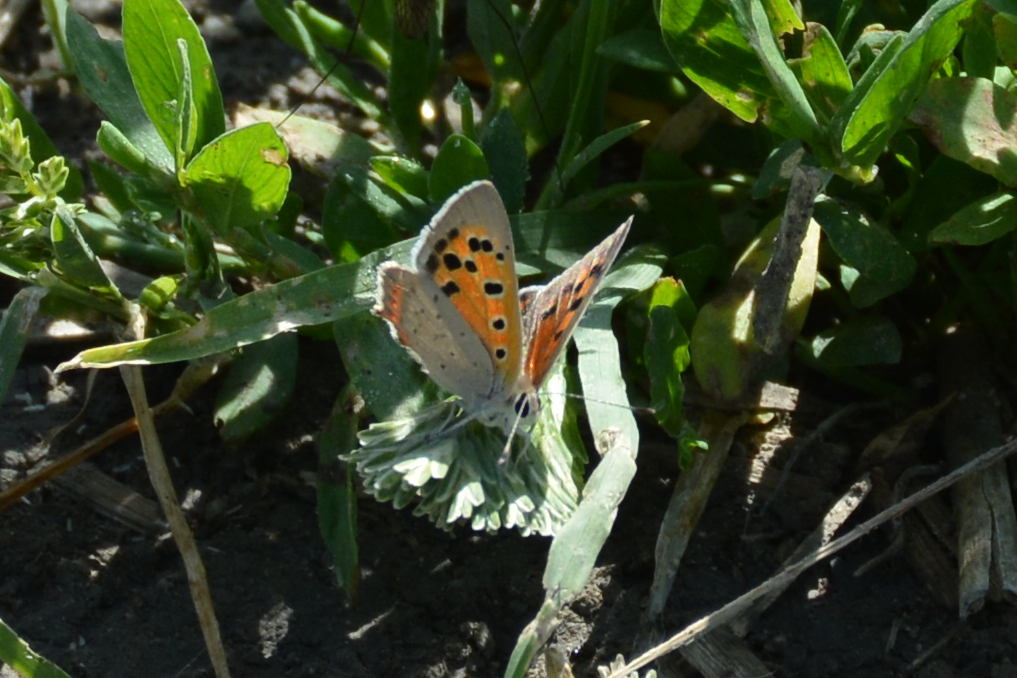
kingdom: Animalia
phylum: Arthropoda
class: Insecta
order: Lepidoptera
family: Lycaenidae
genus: Lycaena
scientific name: Lycaena phlaeas
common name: Small copper
